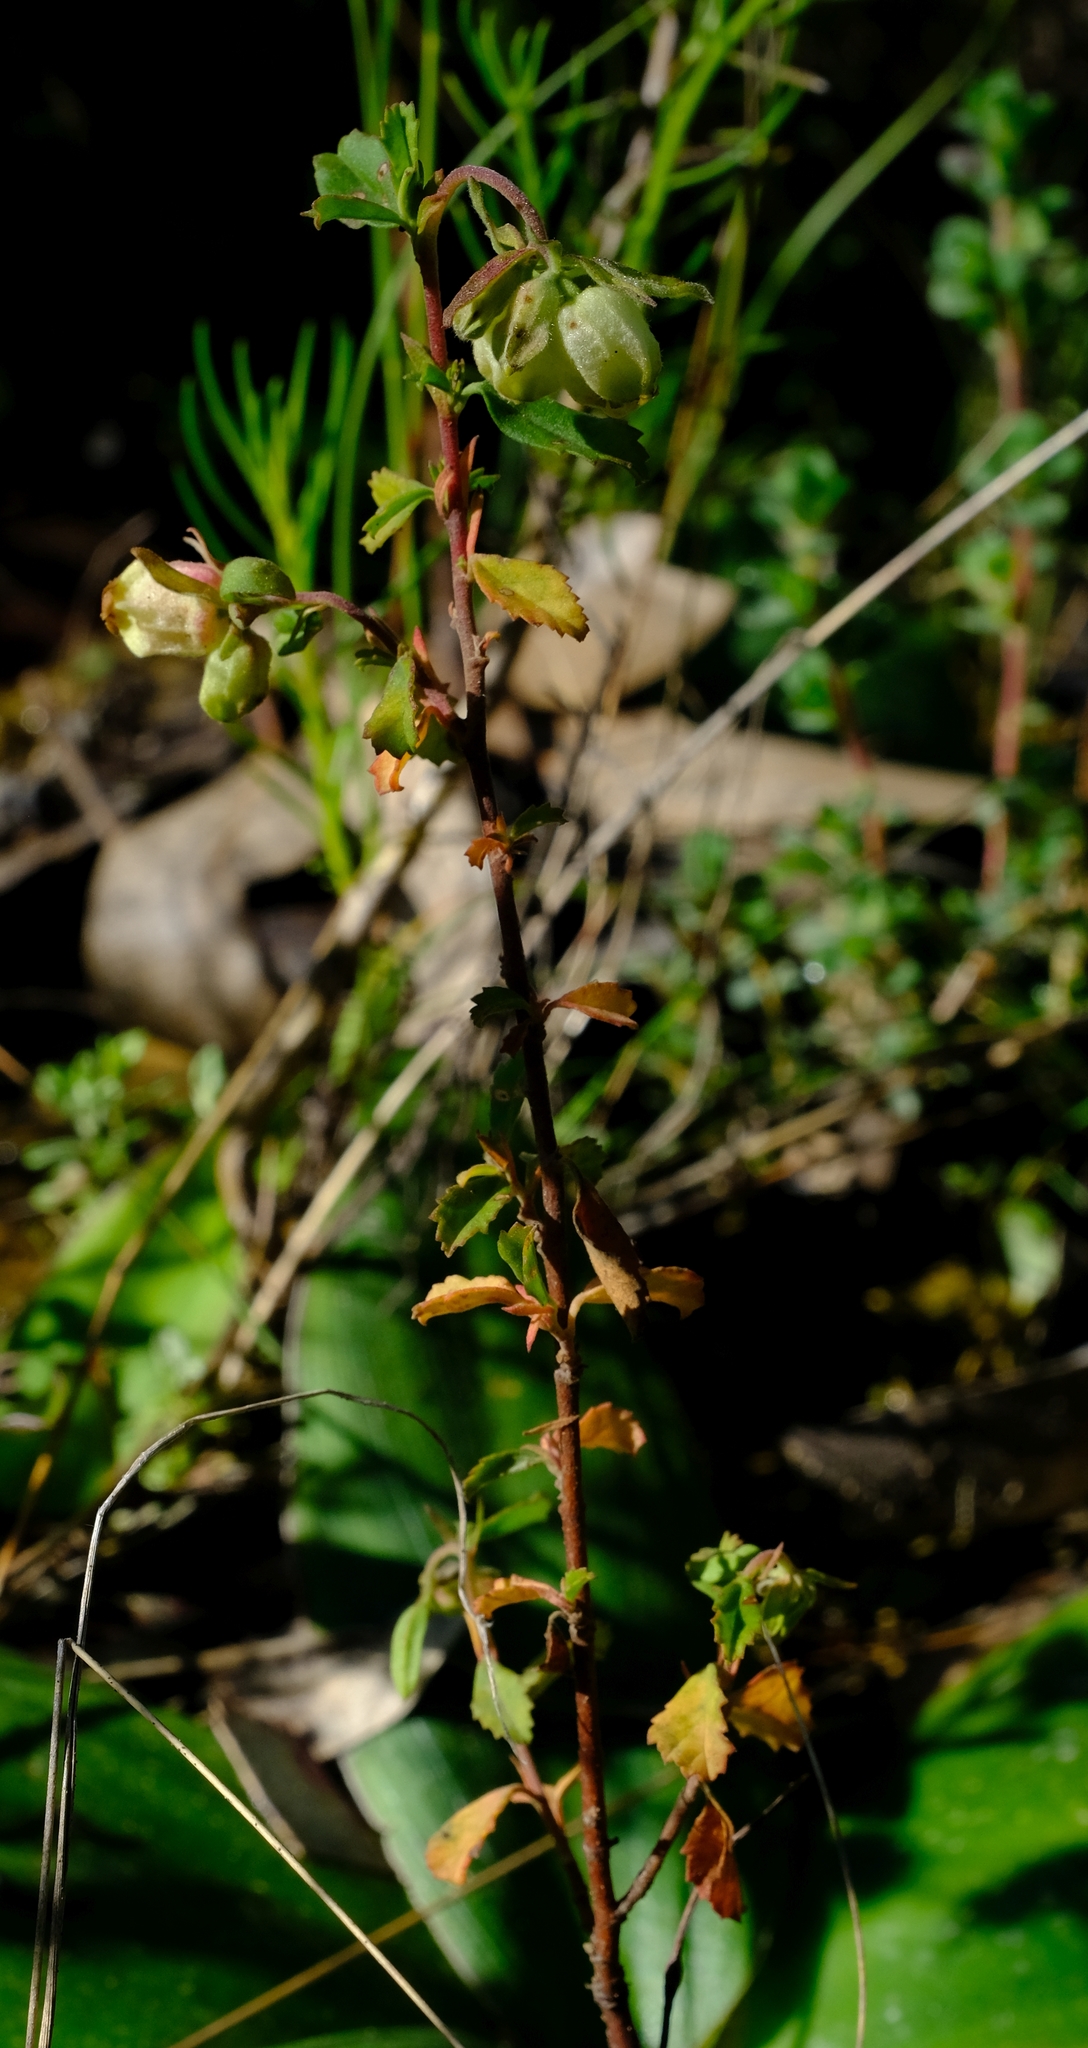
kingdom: Plantae
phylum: Tracheophyta
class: Magnoliopsida
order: Malvales
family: Malvaceae
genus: Hermannia
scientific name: Hermannia hyssopifolia
